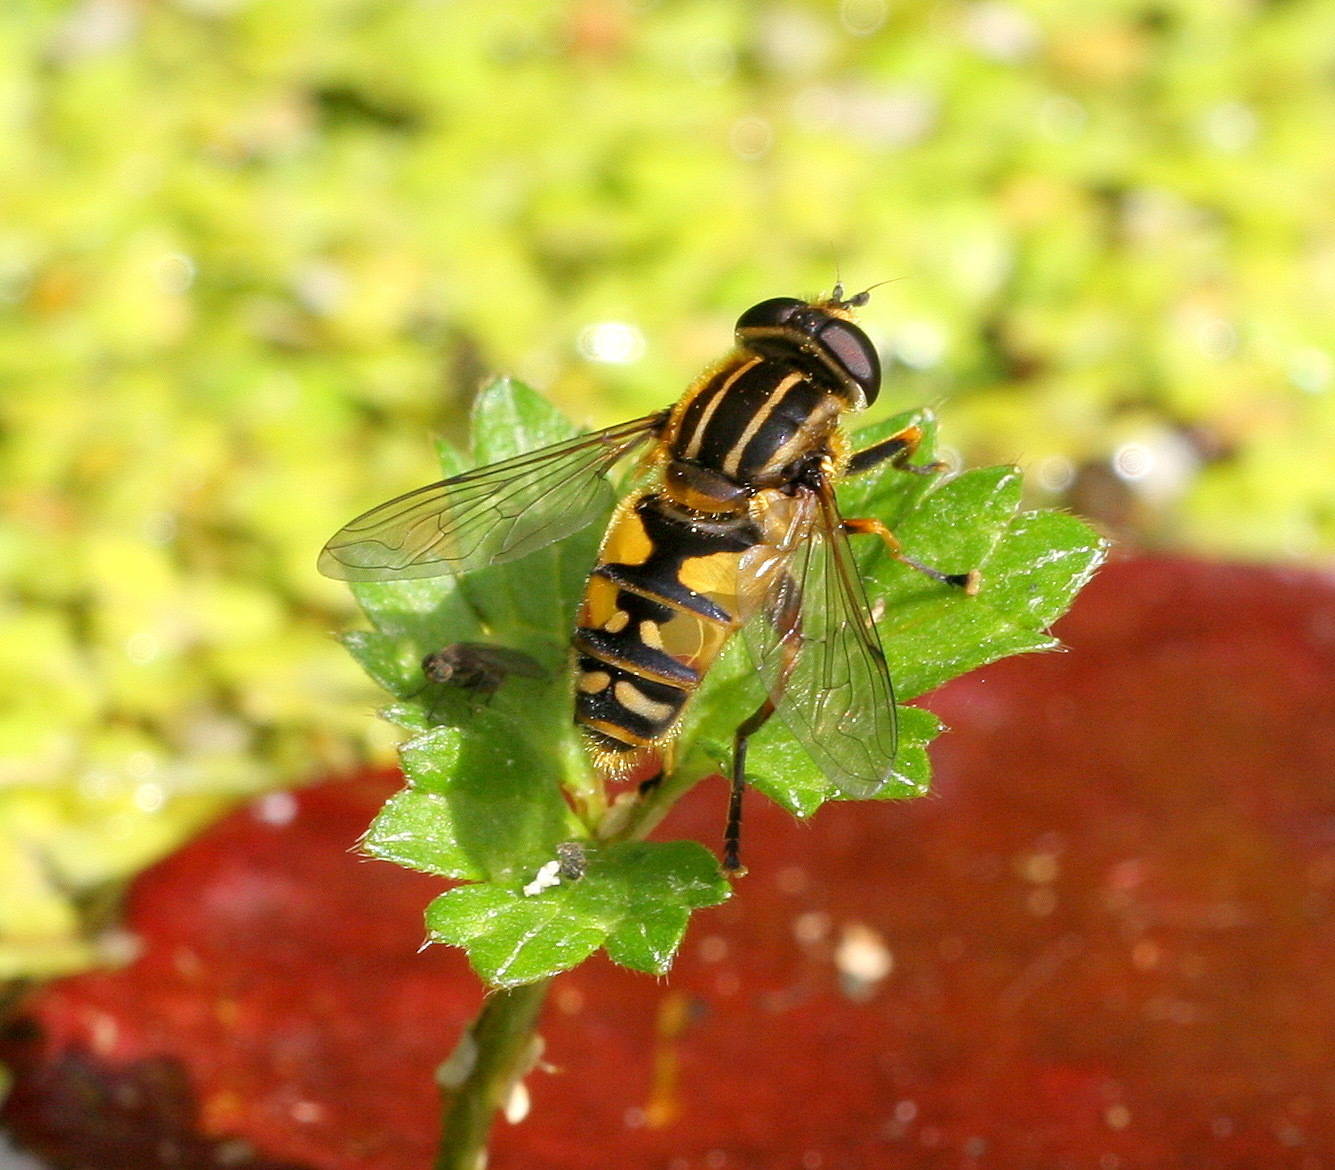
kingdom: Animalia
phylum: Arthropoda
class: Insecta
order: Diptera
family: Syrphidae
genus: Helophilus
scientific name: Helophilus pendulus
